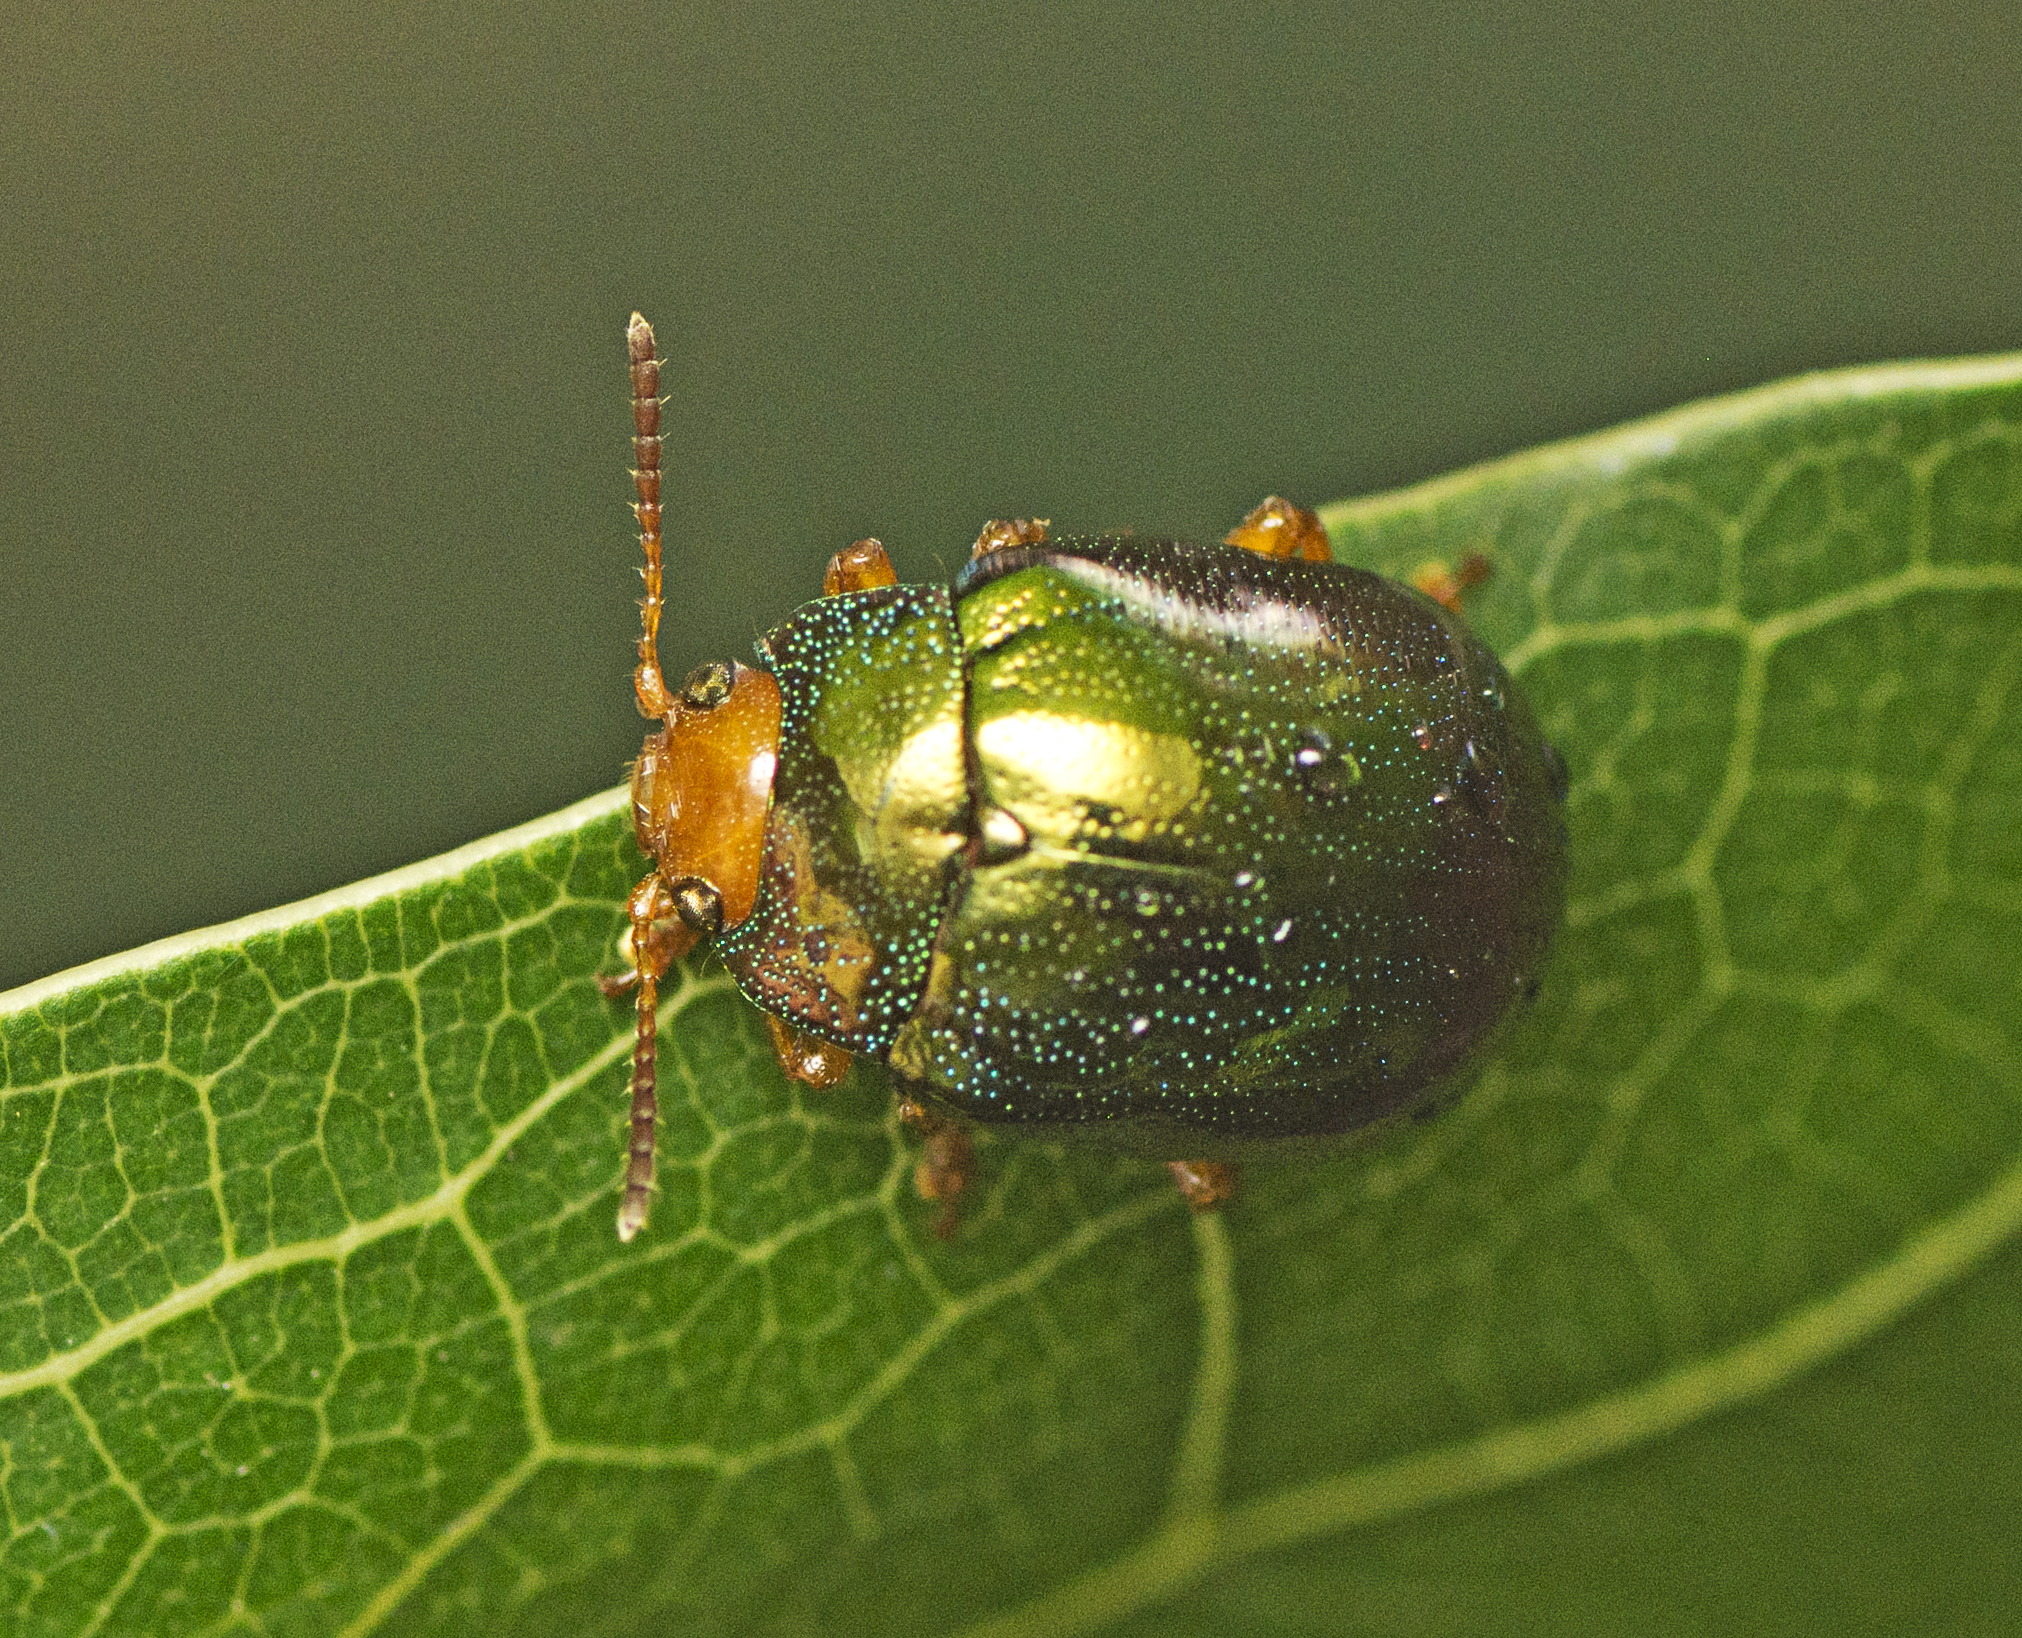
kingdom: Animalia
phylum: Arthropoda
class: Insecta
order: Coleoptera
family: Chrysomelidae
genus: Calomela
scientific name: Calomela
